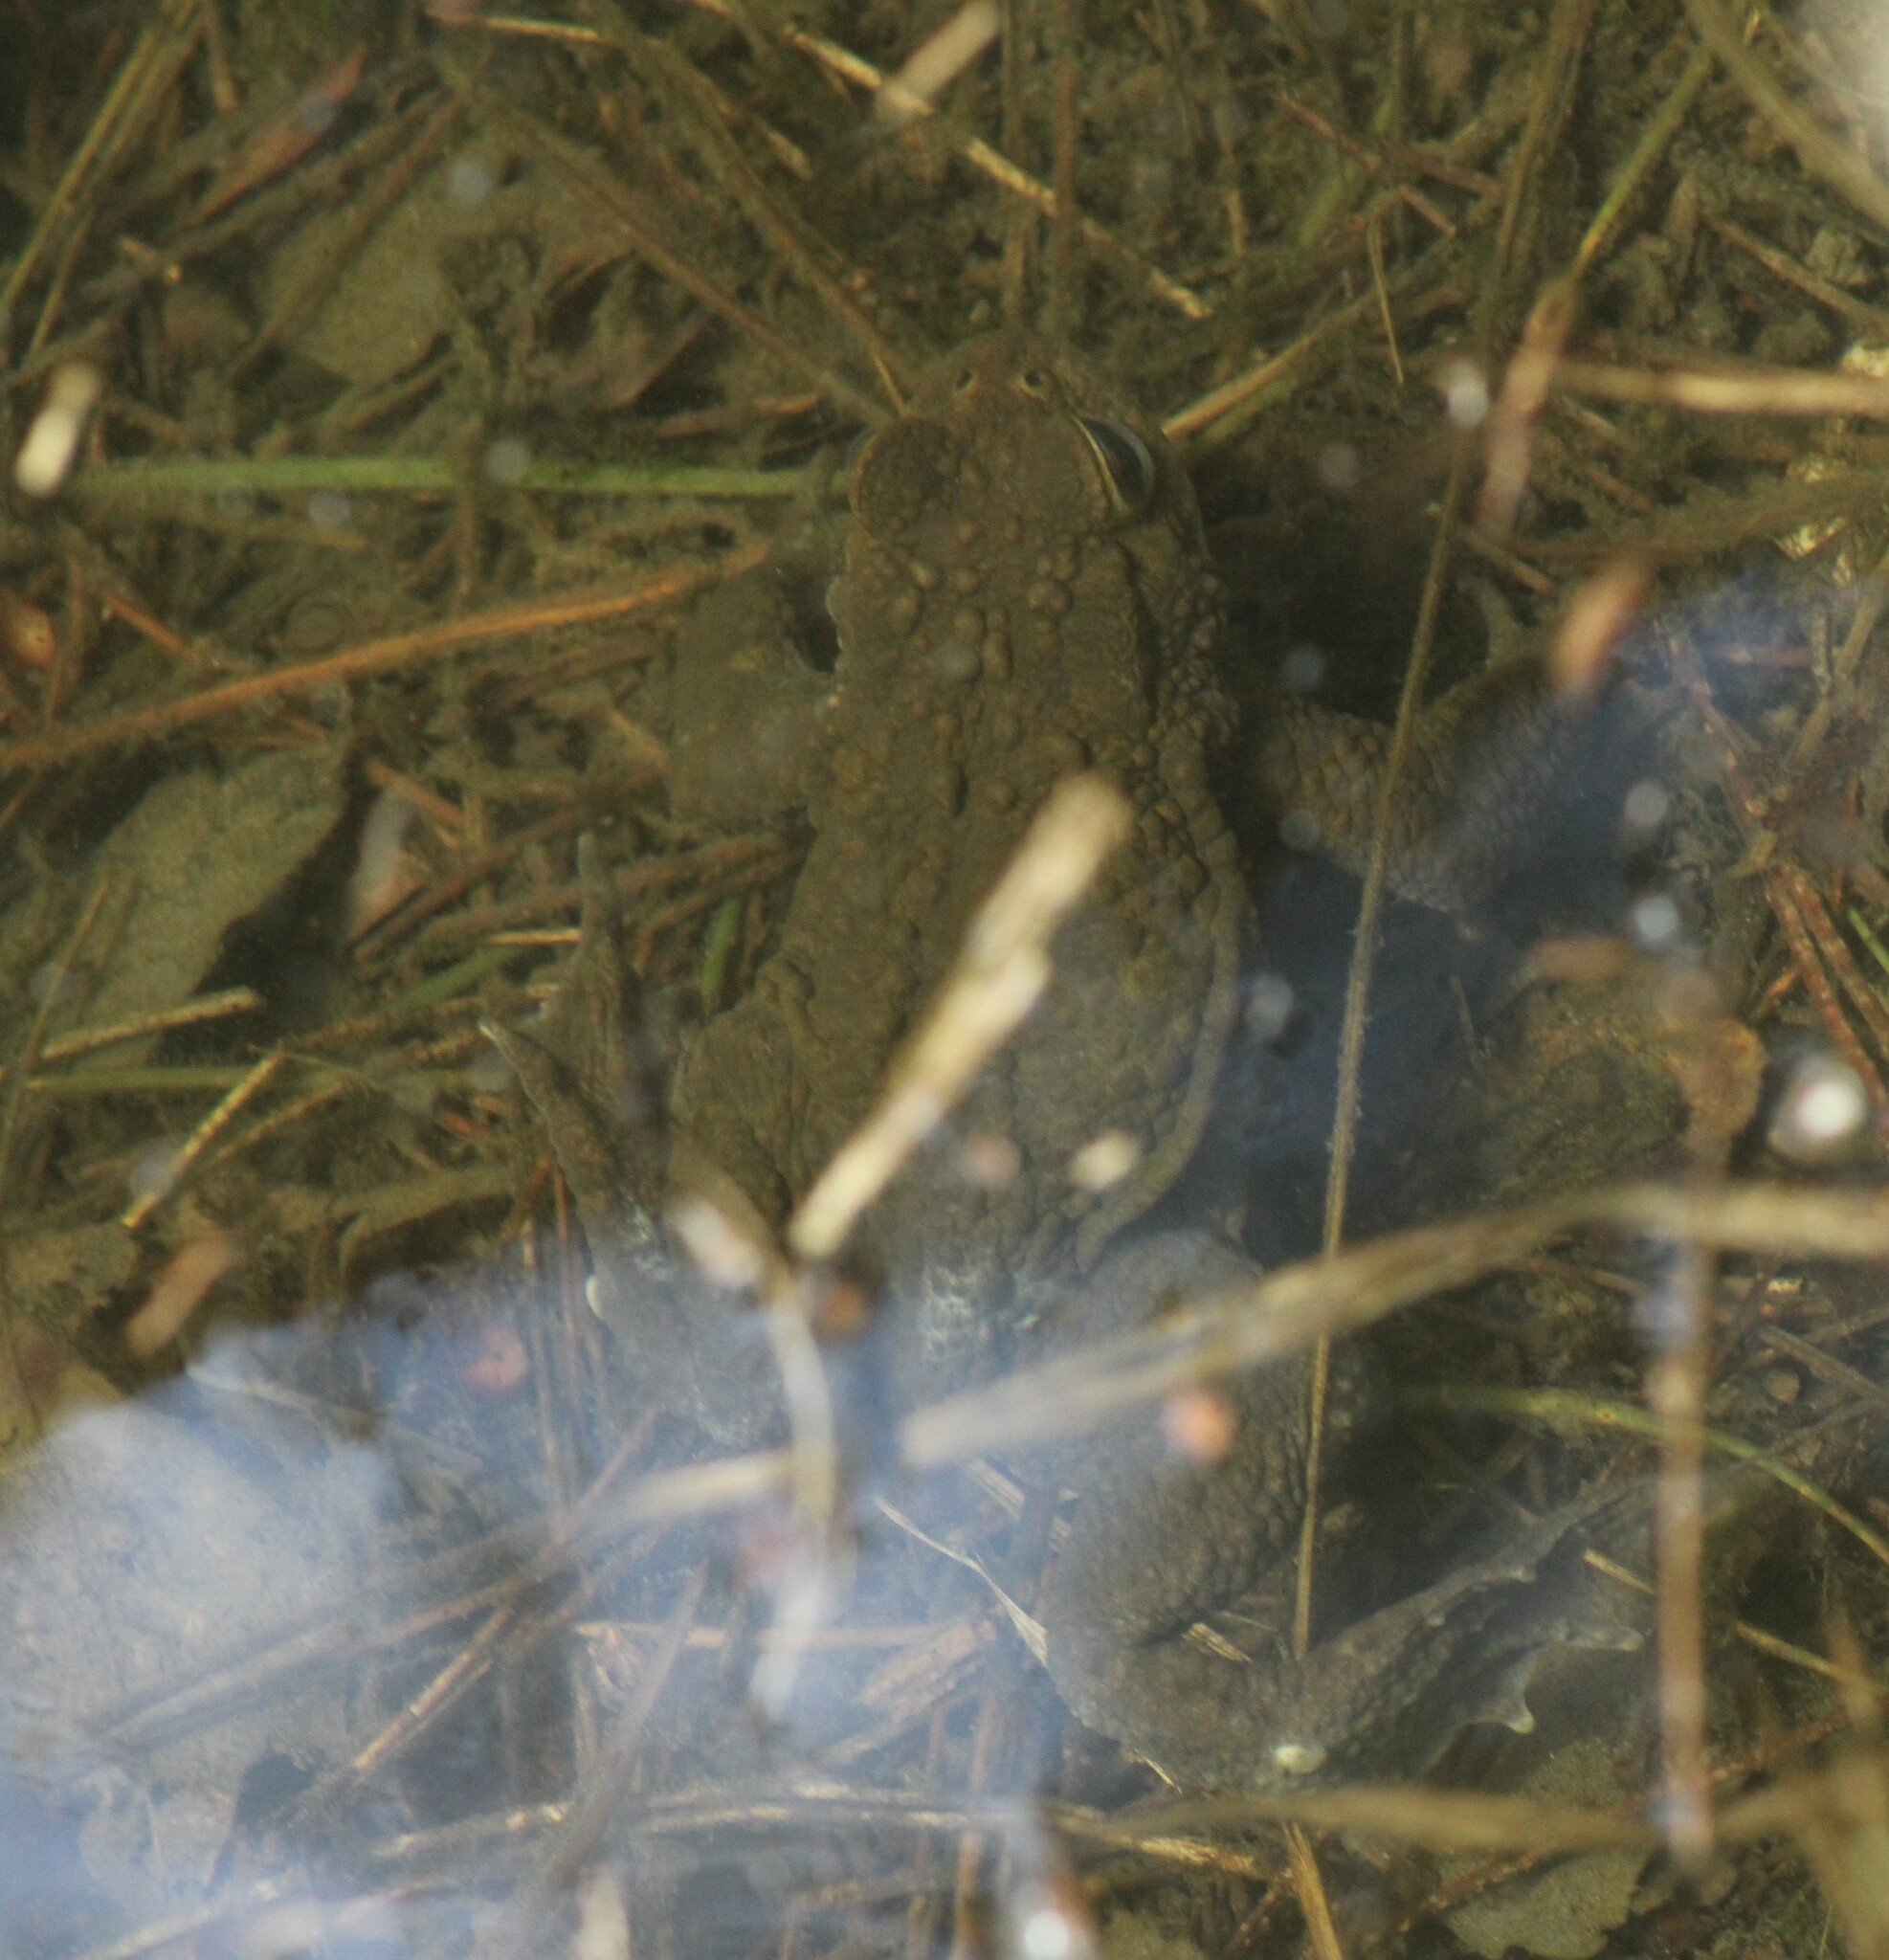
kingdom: Animalia
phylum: Chordata
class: Amphibia
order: Anura
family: Bufonidae
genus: Bufo
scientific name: Bufo bufo
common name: Common toad
